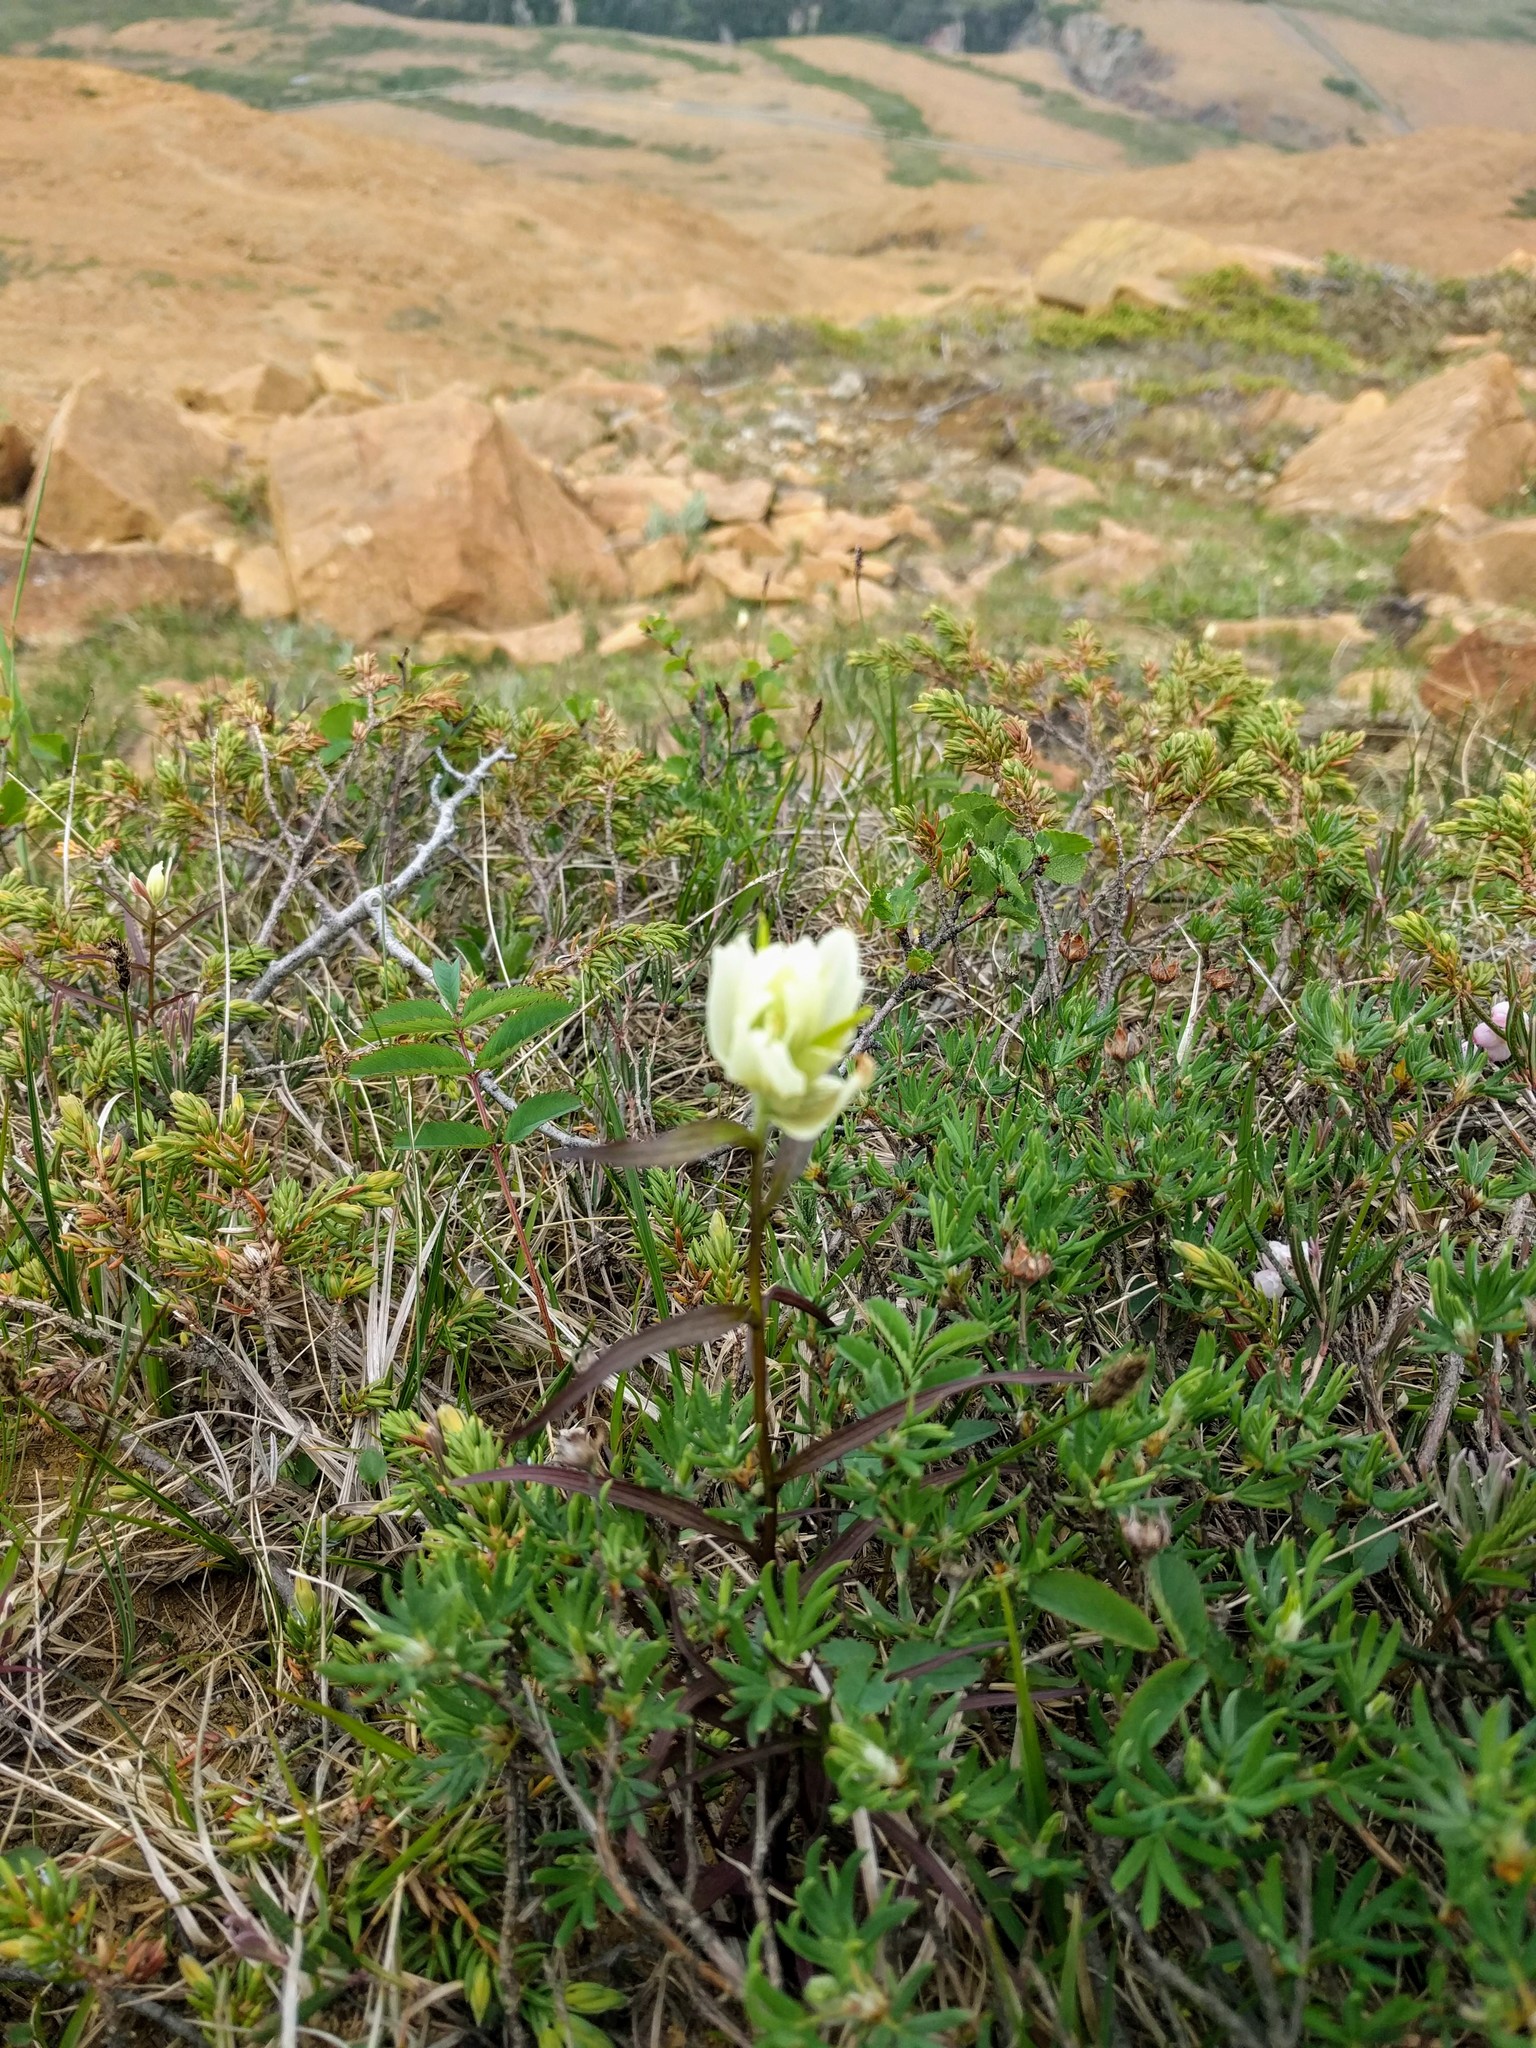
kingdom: Plantae
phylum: Tracheophyta
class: Magnoliopsida
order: Lamiales
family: Orobanchaceae
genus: Castilleja
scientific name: Castilleja septentrionalis
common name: Northeastern paintbrush
